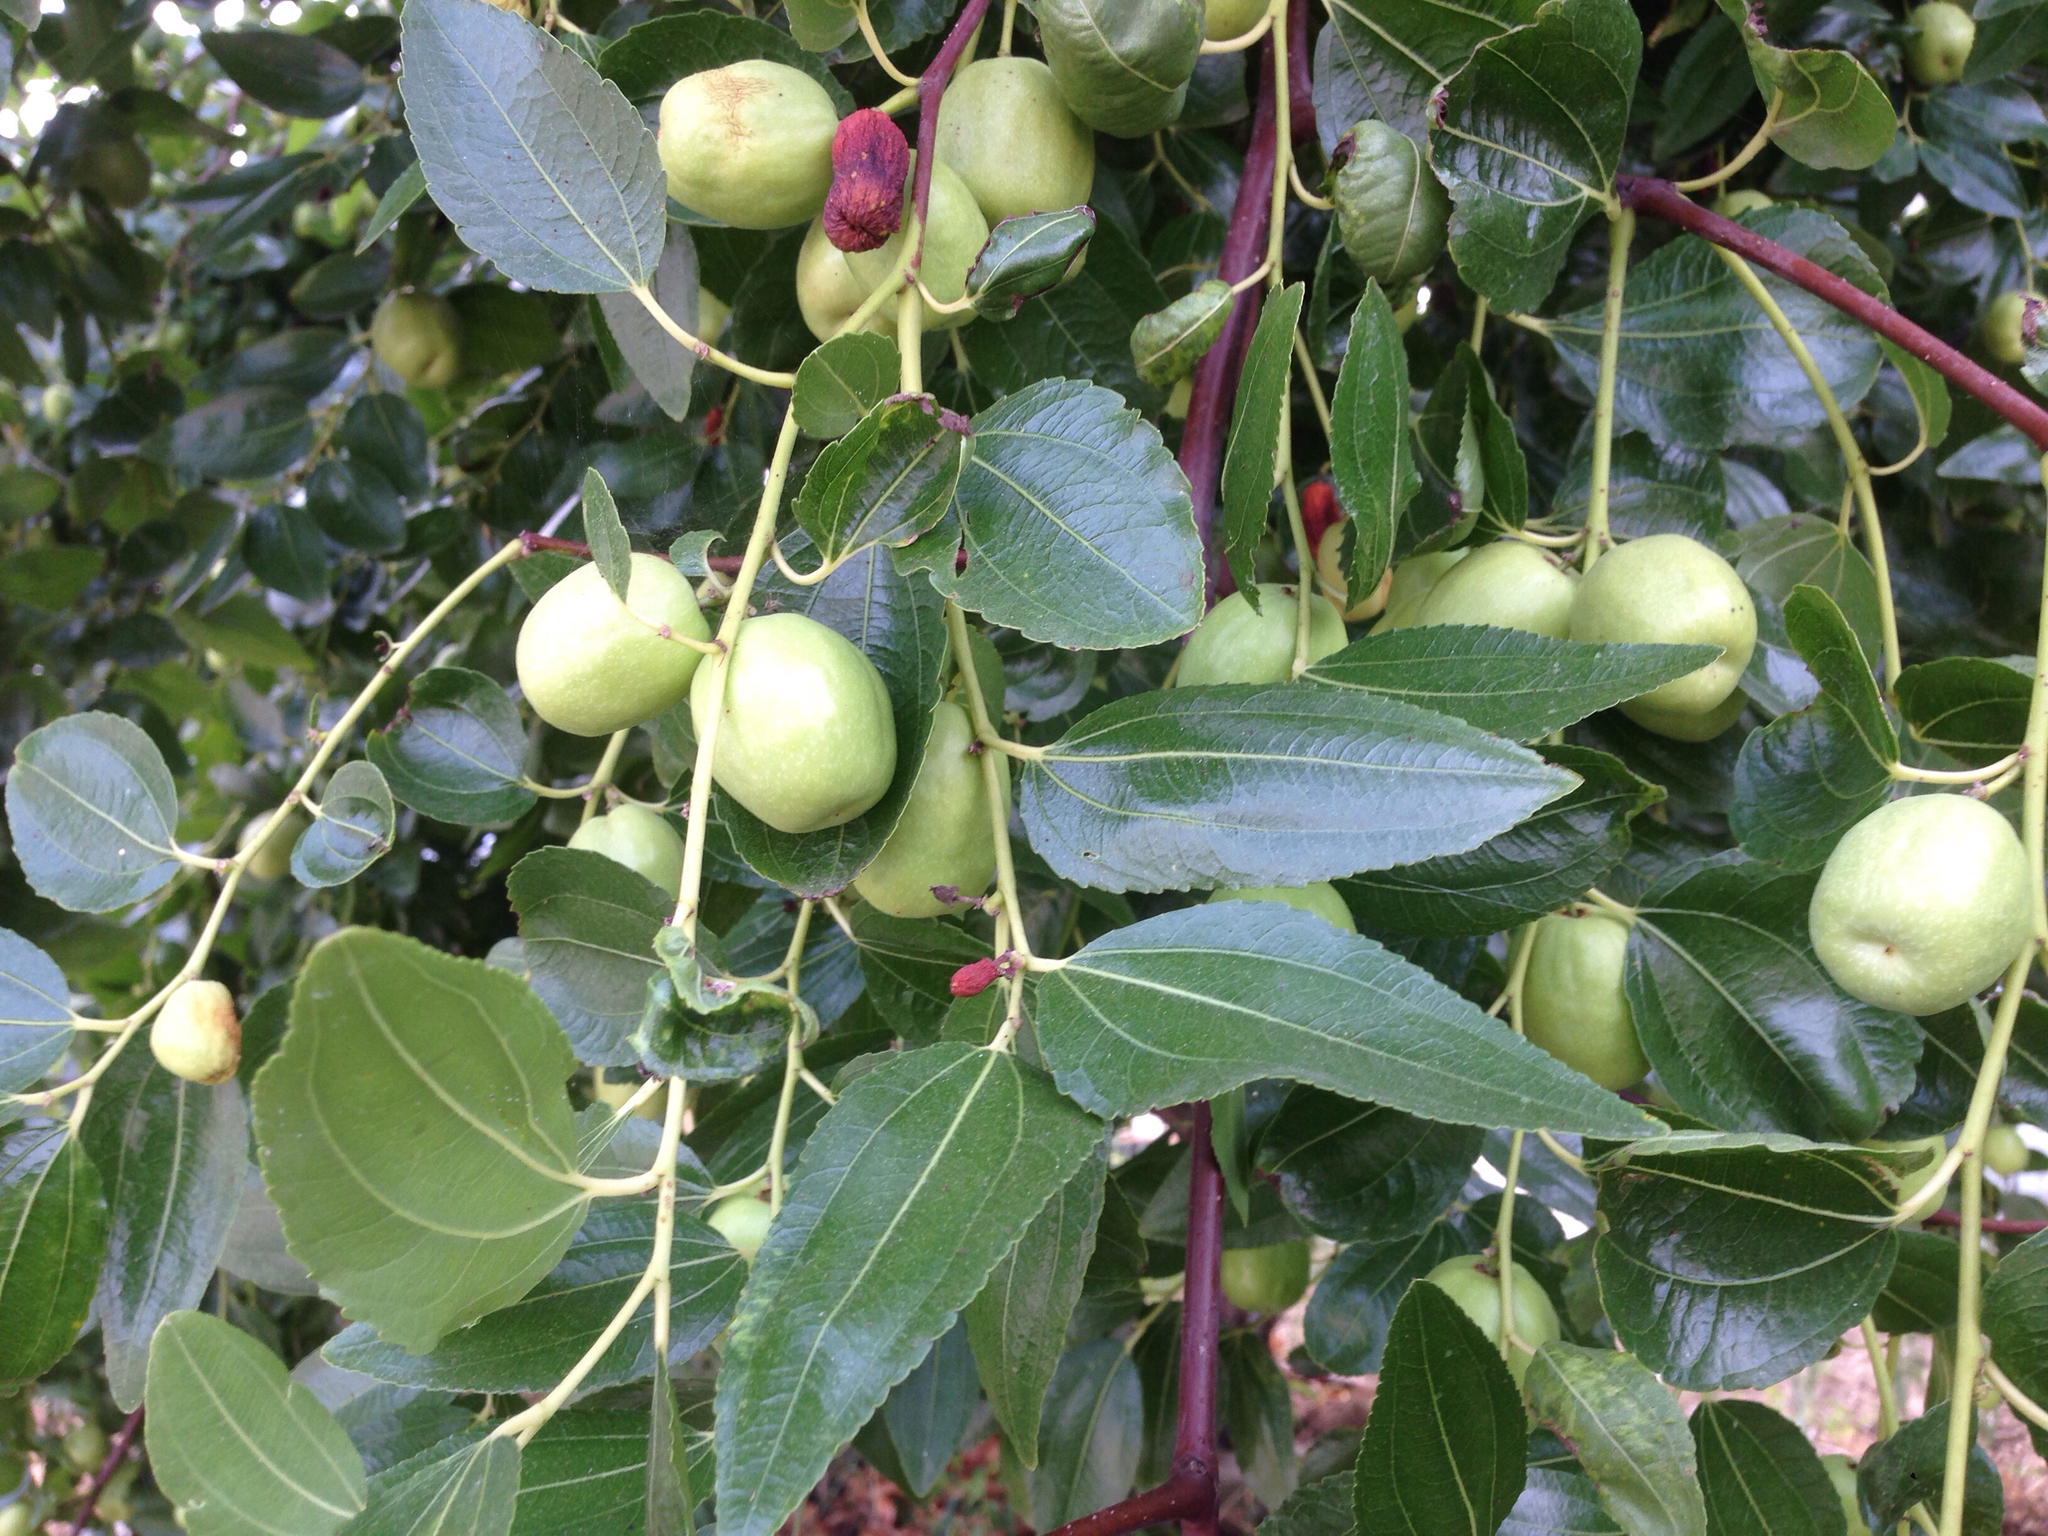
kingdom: Plantae
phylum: Tracheophyta
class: Magnoliopsida
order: Rosales
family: Rhamnaceae
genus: Ziziphus
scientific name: Ziziphus jujuba
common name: Jujube red date
